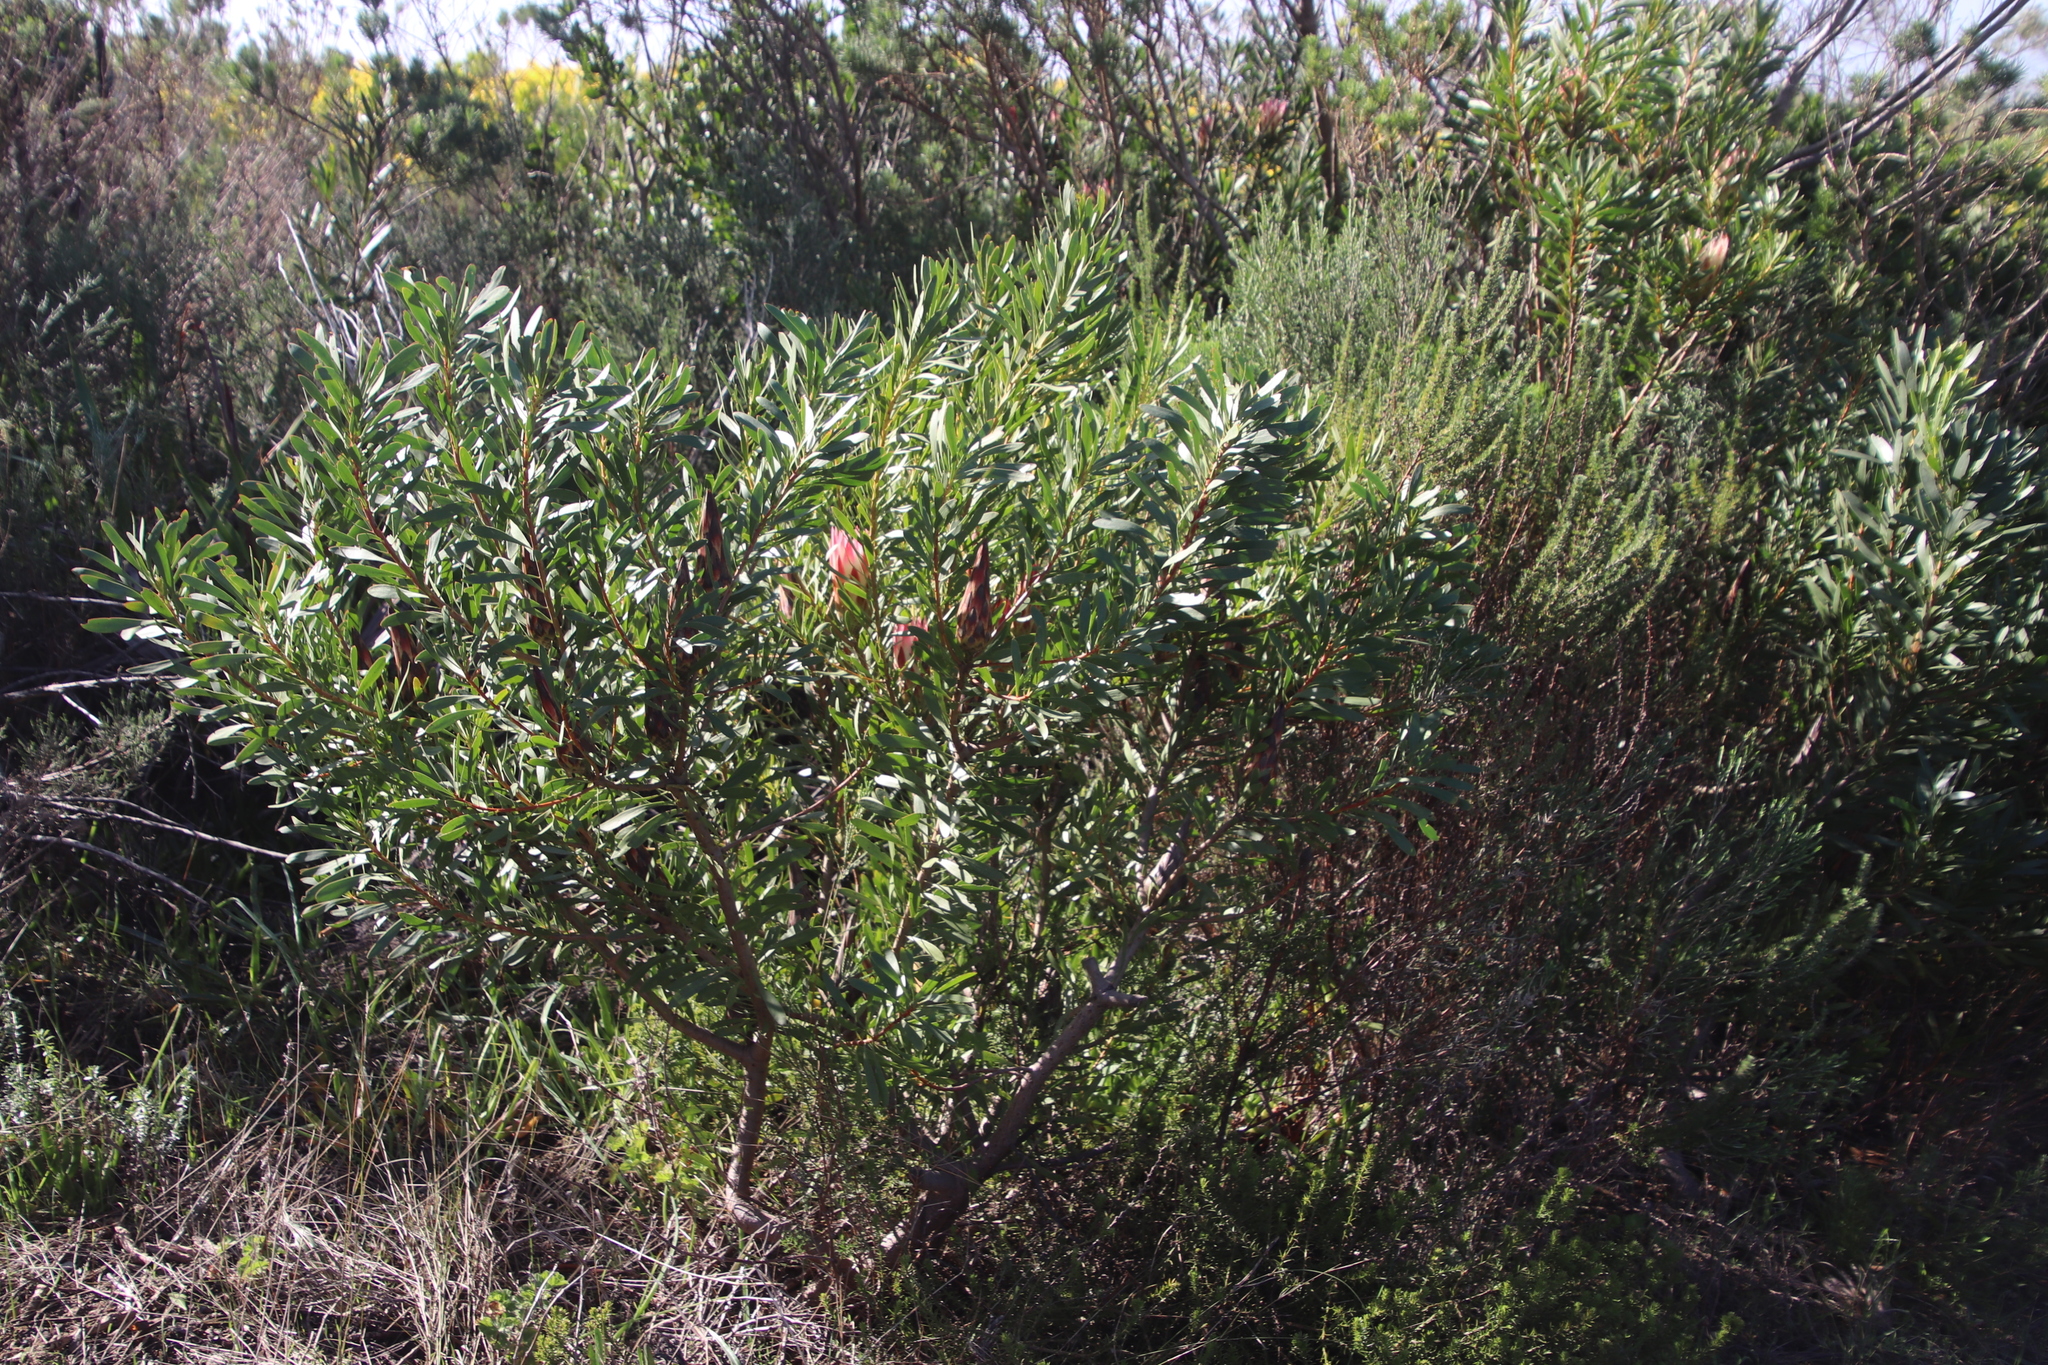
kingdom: Plantae
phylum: Tracheophyta
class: Magnoliopsida
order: Proteales
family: Proteaceae
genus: Protea
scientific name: Protea repens
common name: Sugarbush
